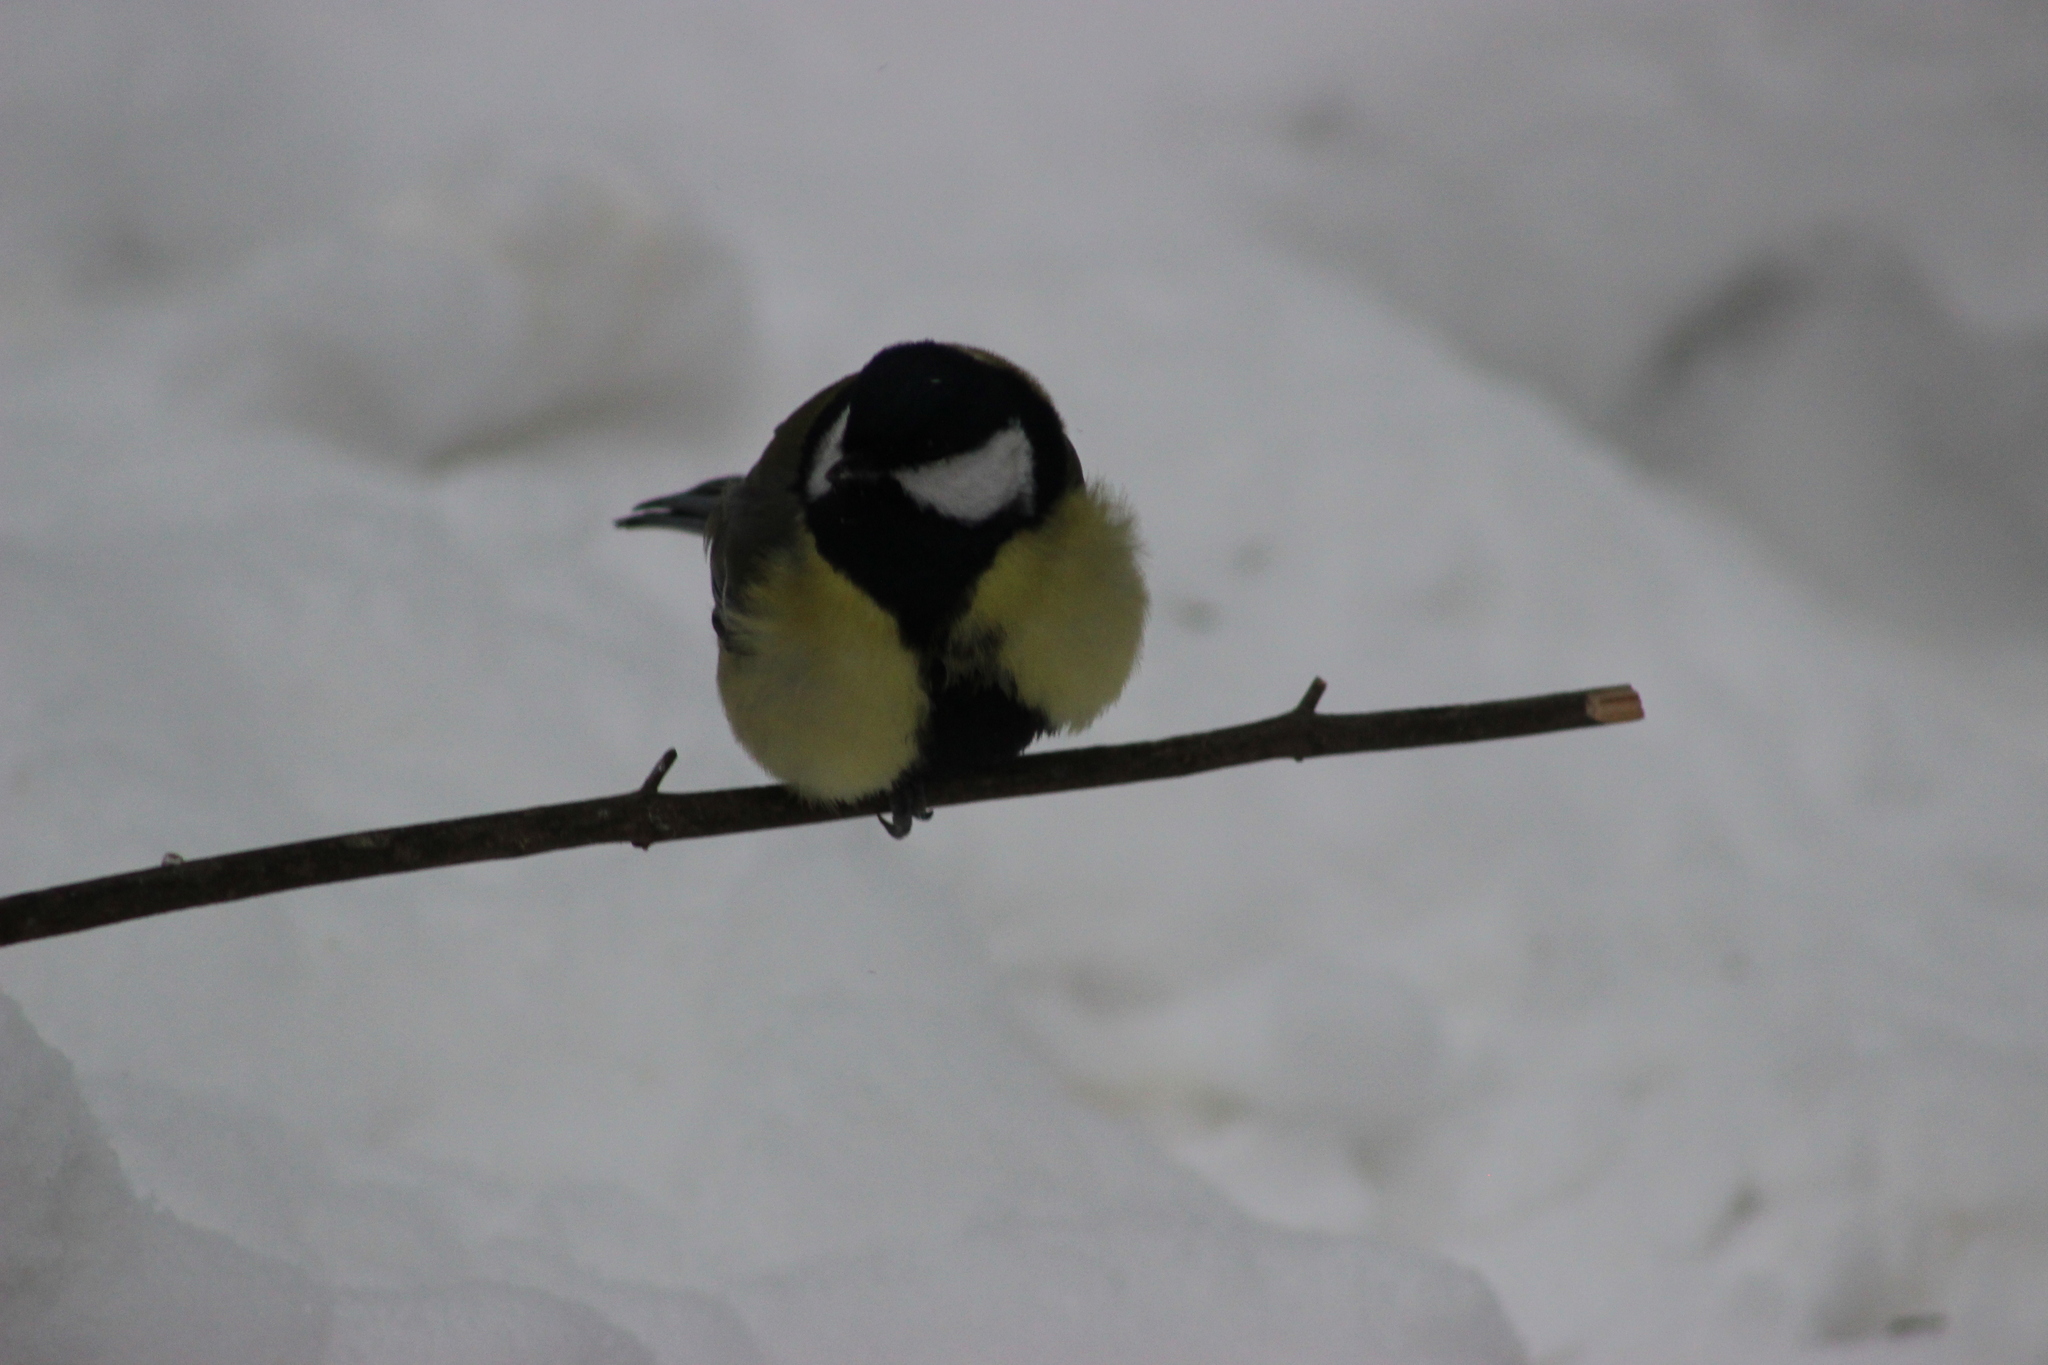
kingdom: Animalia
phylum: Chordata
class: Aves
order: Passeriformes
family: Paridae
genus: Parus
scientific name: Parus major
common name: Great tit
